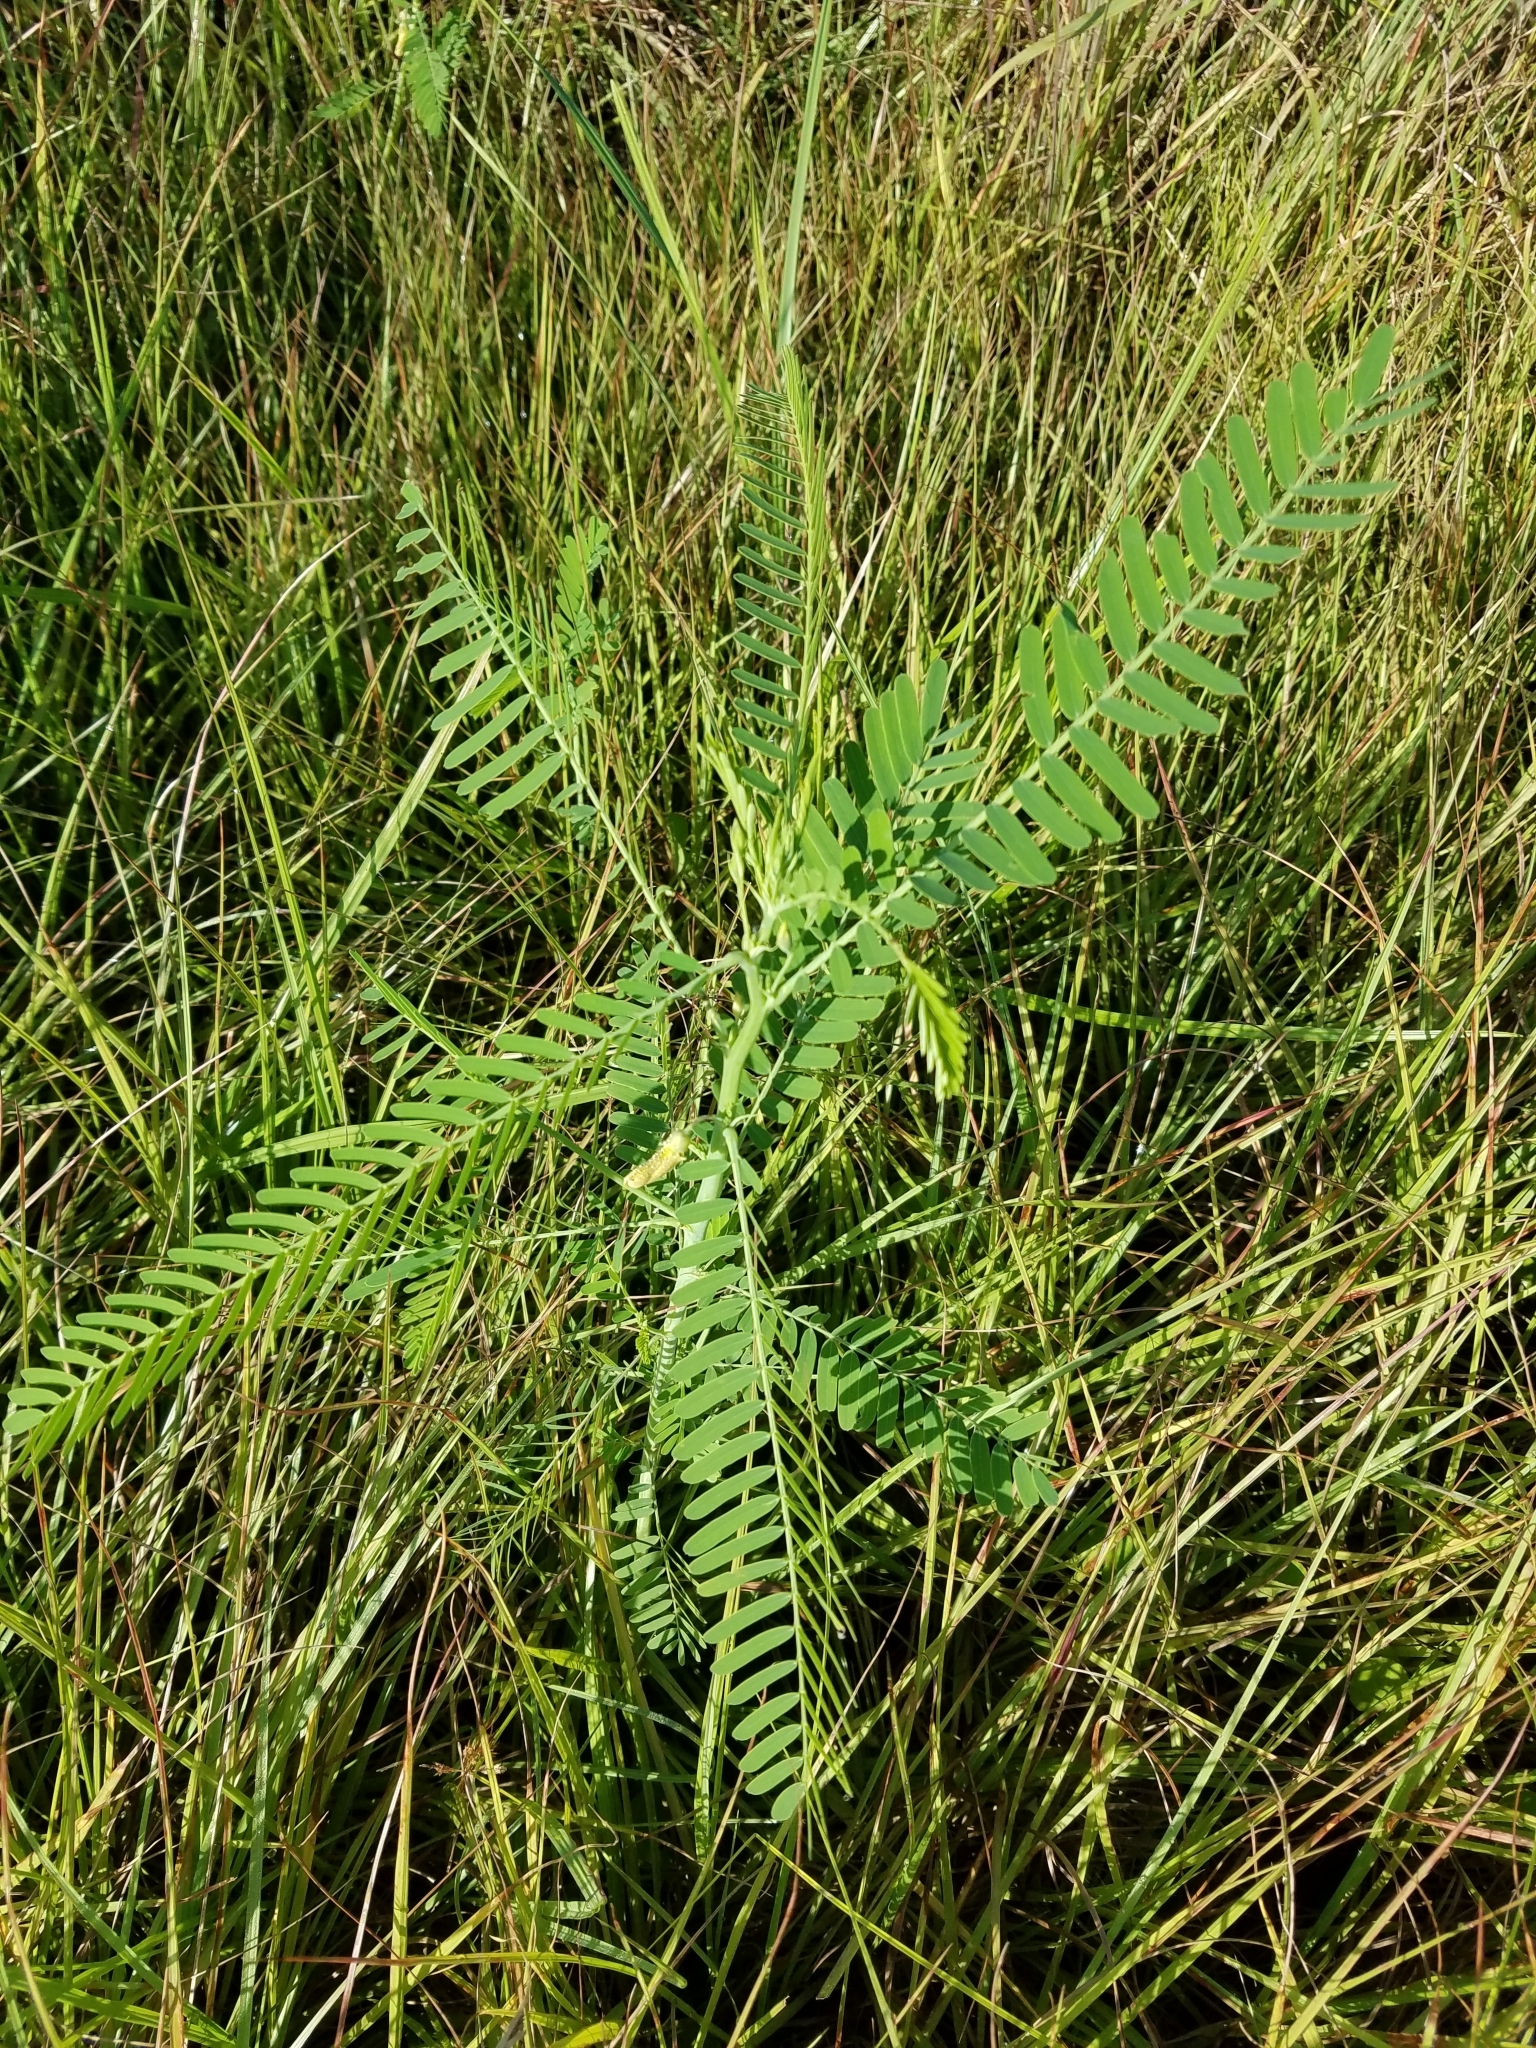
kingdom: Plantae
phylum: Tracheophyta
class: Magnoliopsida
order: Fabales
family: Fabaceae
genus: Sesbania
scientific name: Sesbania herbacea
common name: Bigpod sesbania
